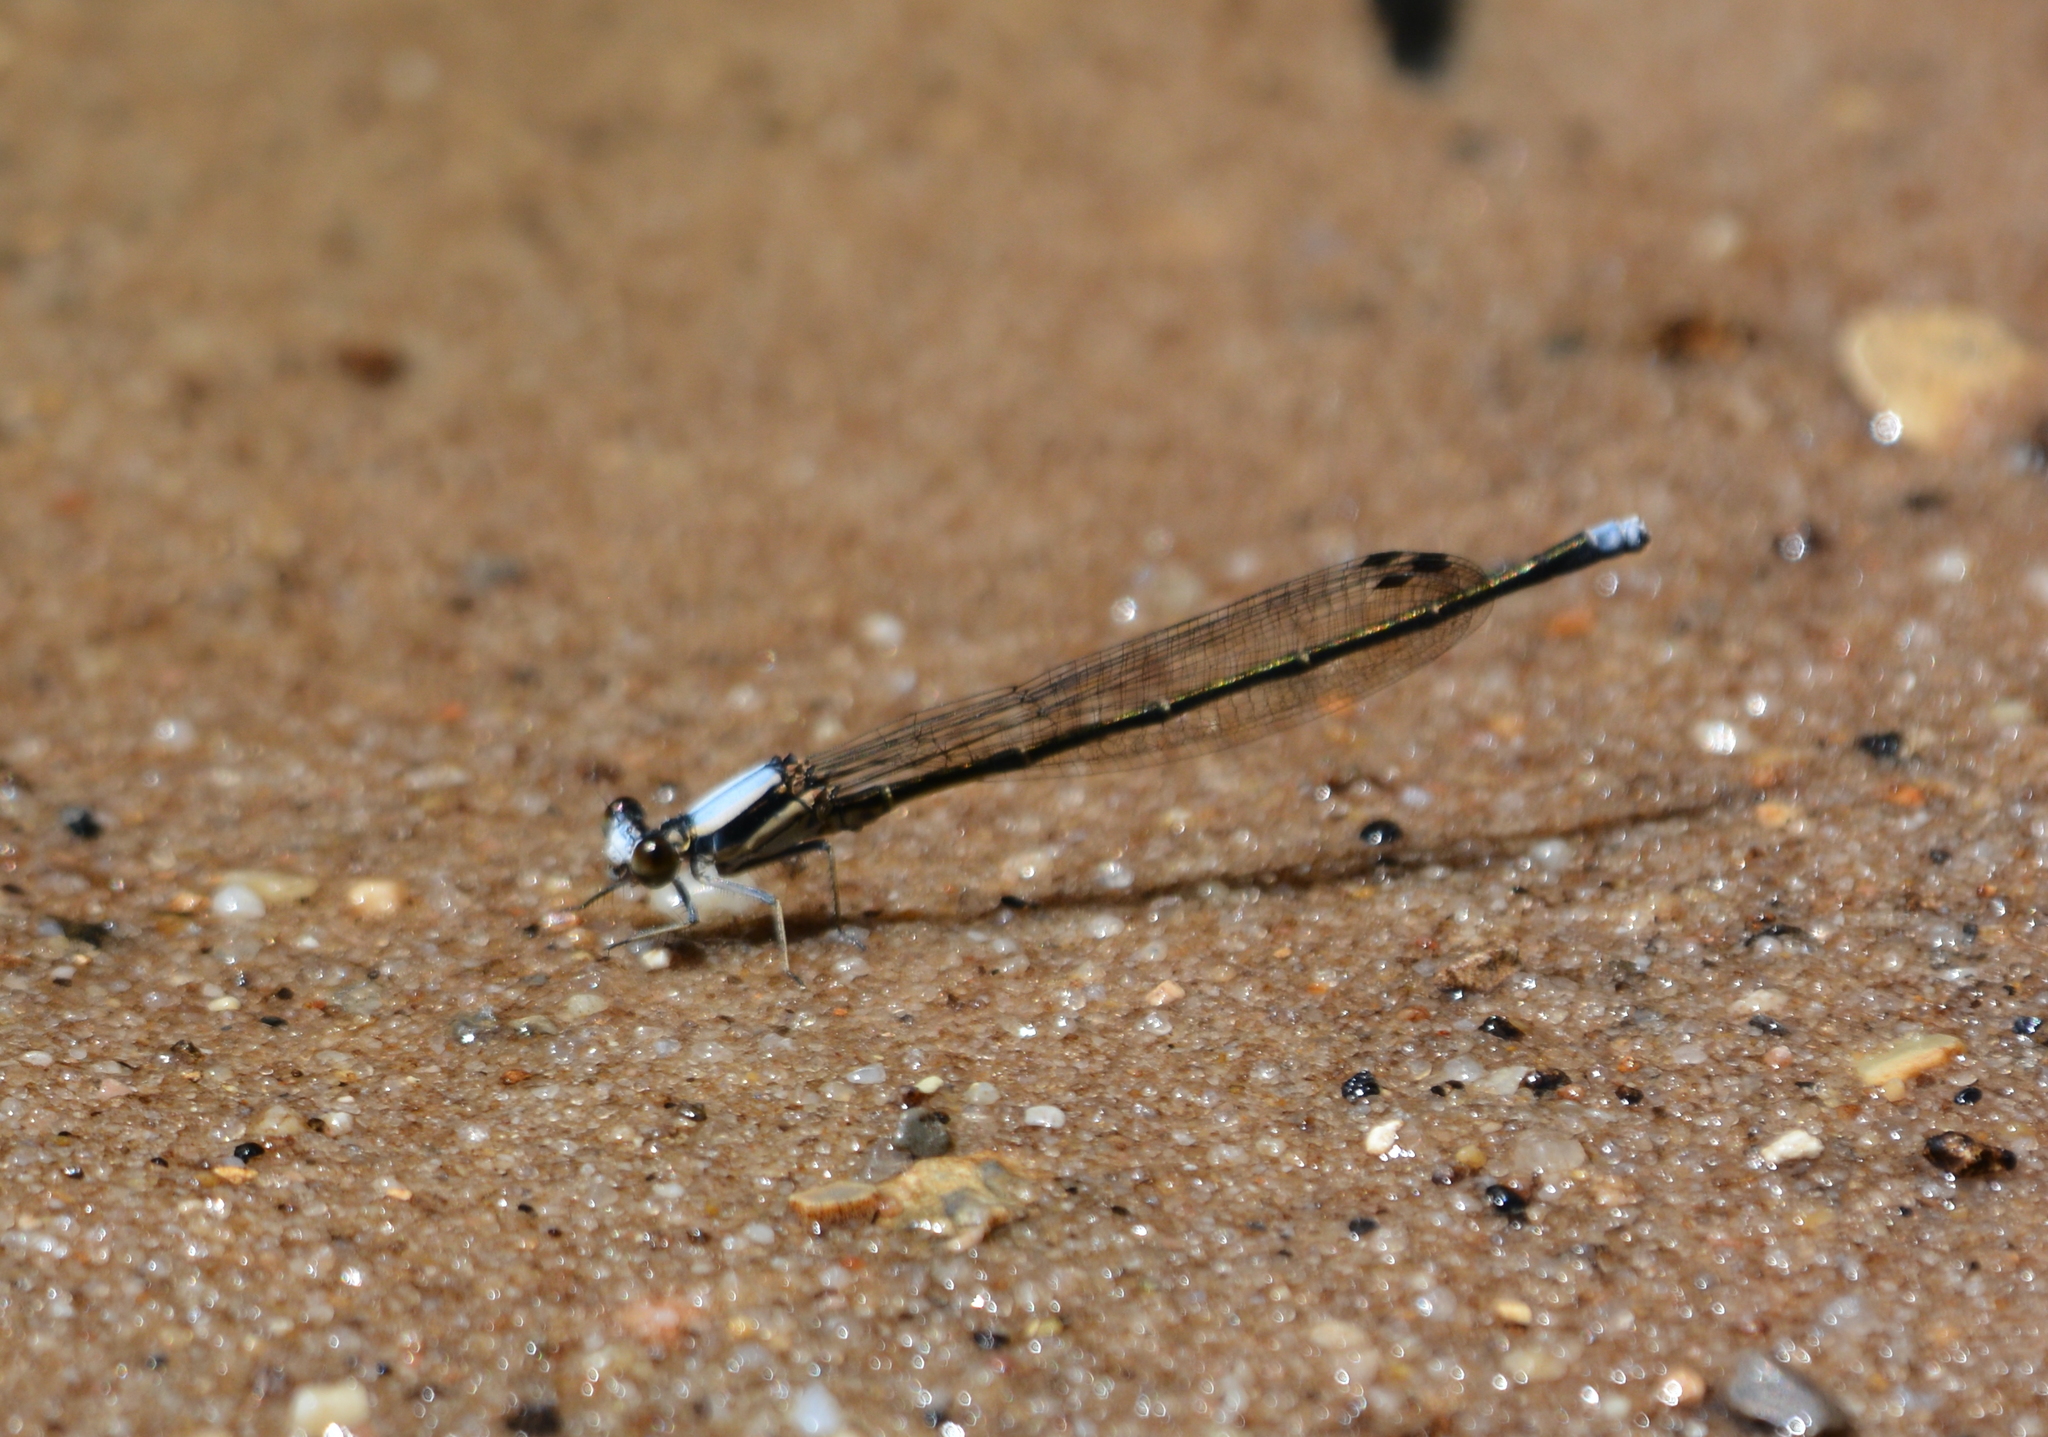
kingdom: Animalia
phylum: Arthropoda
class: Insecta
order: Odonata
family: Coenagrionidae
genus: Argia
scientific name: Argia moesta
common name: Powdered dancer
